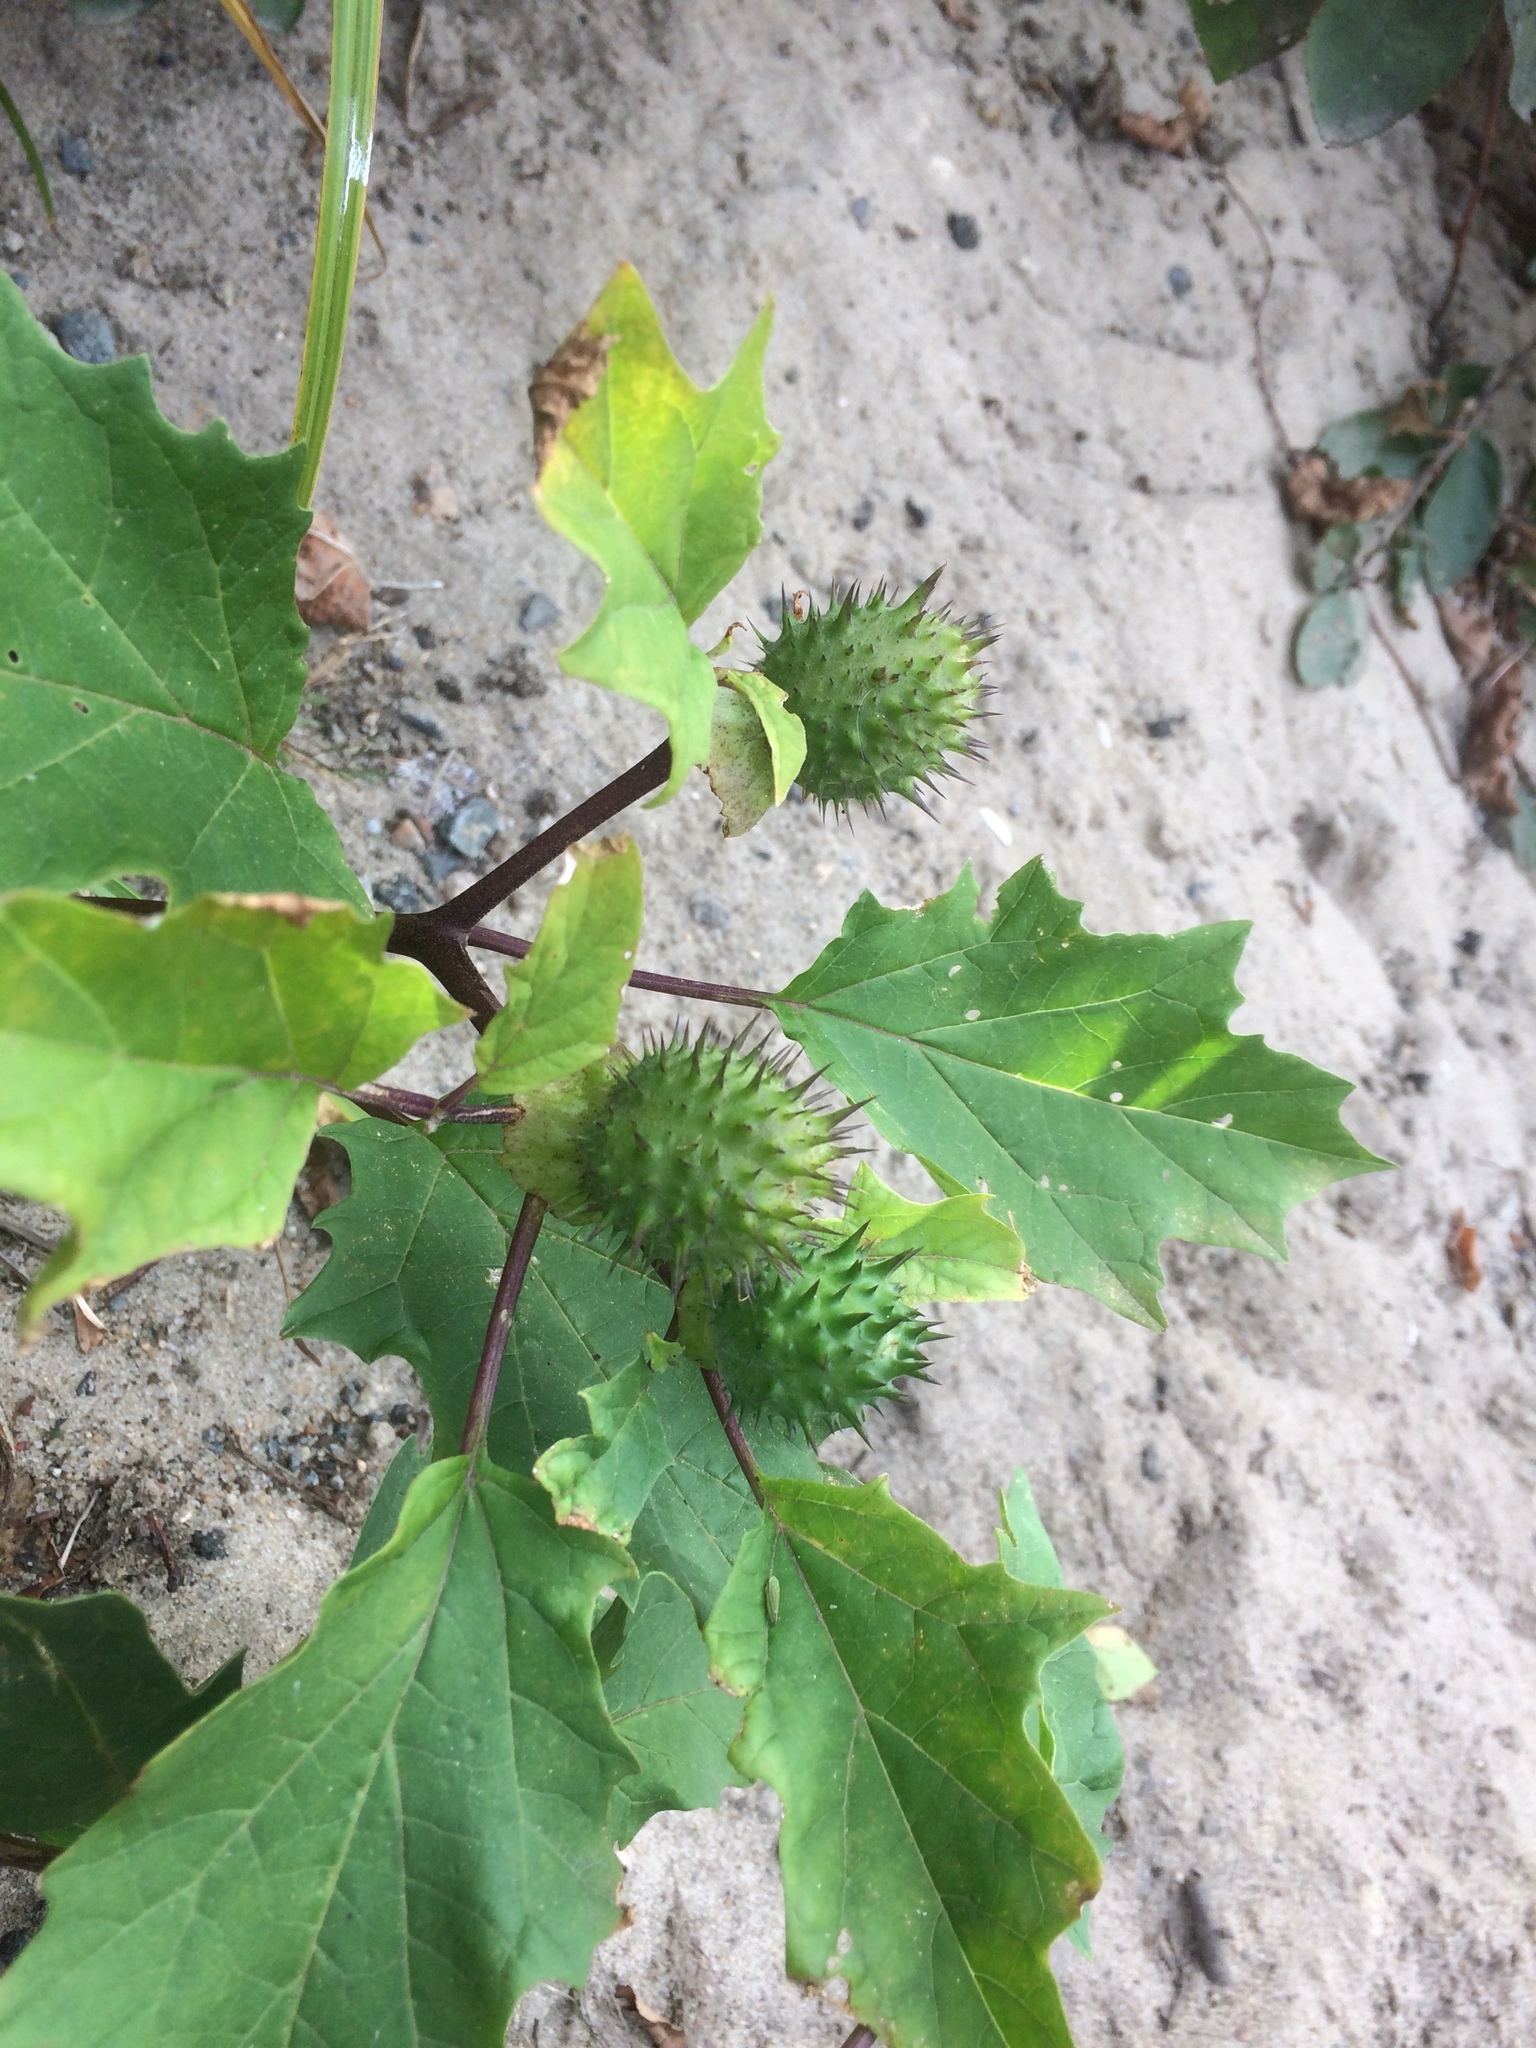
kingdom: Plantae
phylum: Tracheophyta
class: Magnoliopsida
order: Solanales
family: Solanaceae
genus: Datura
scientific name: Datura stramonium
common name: Thorn-apple
